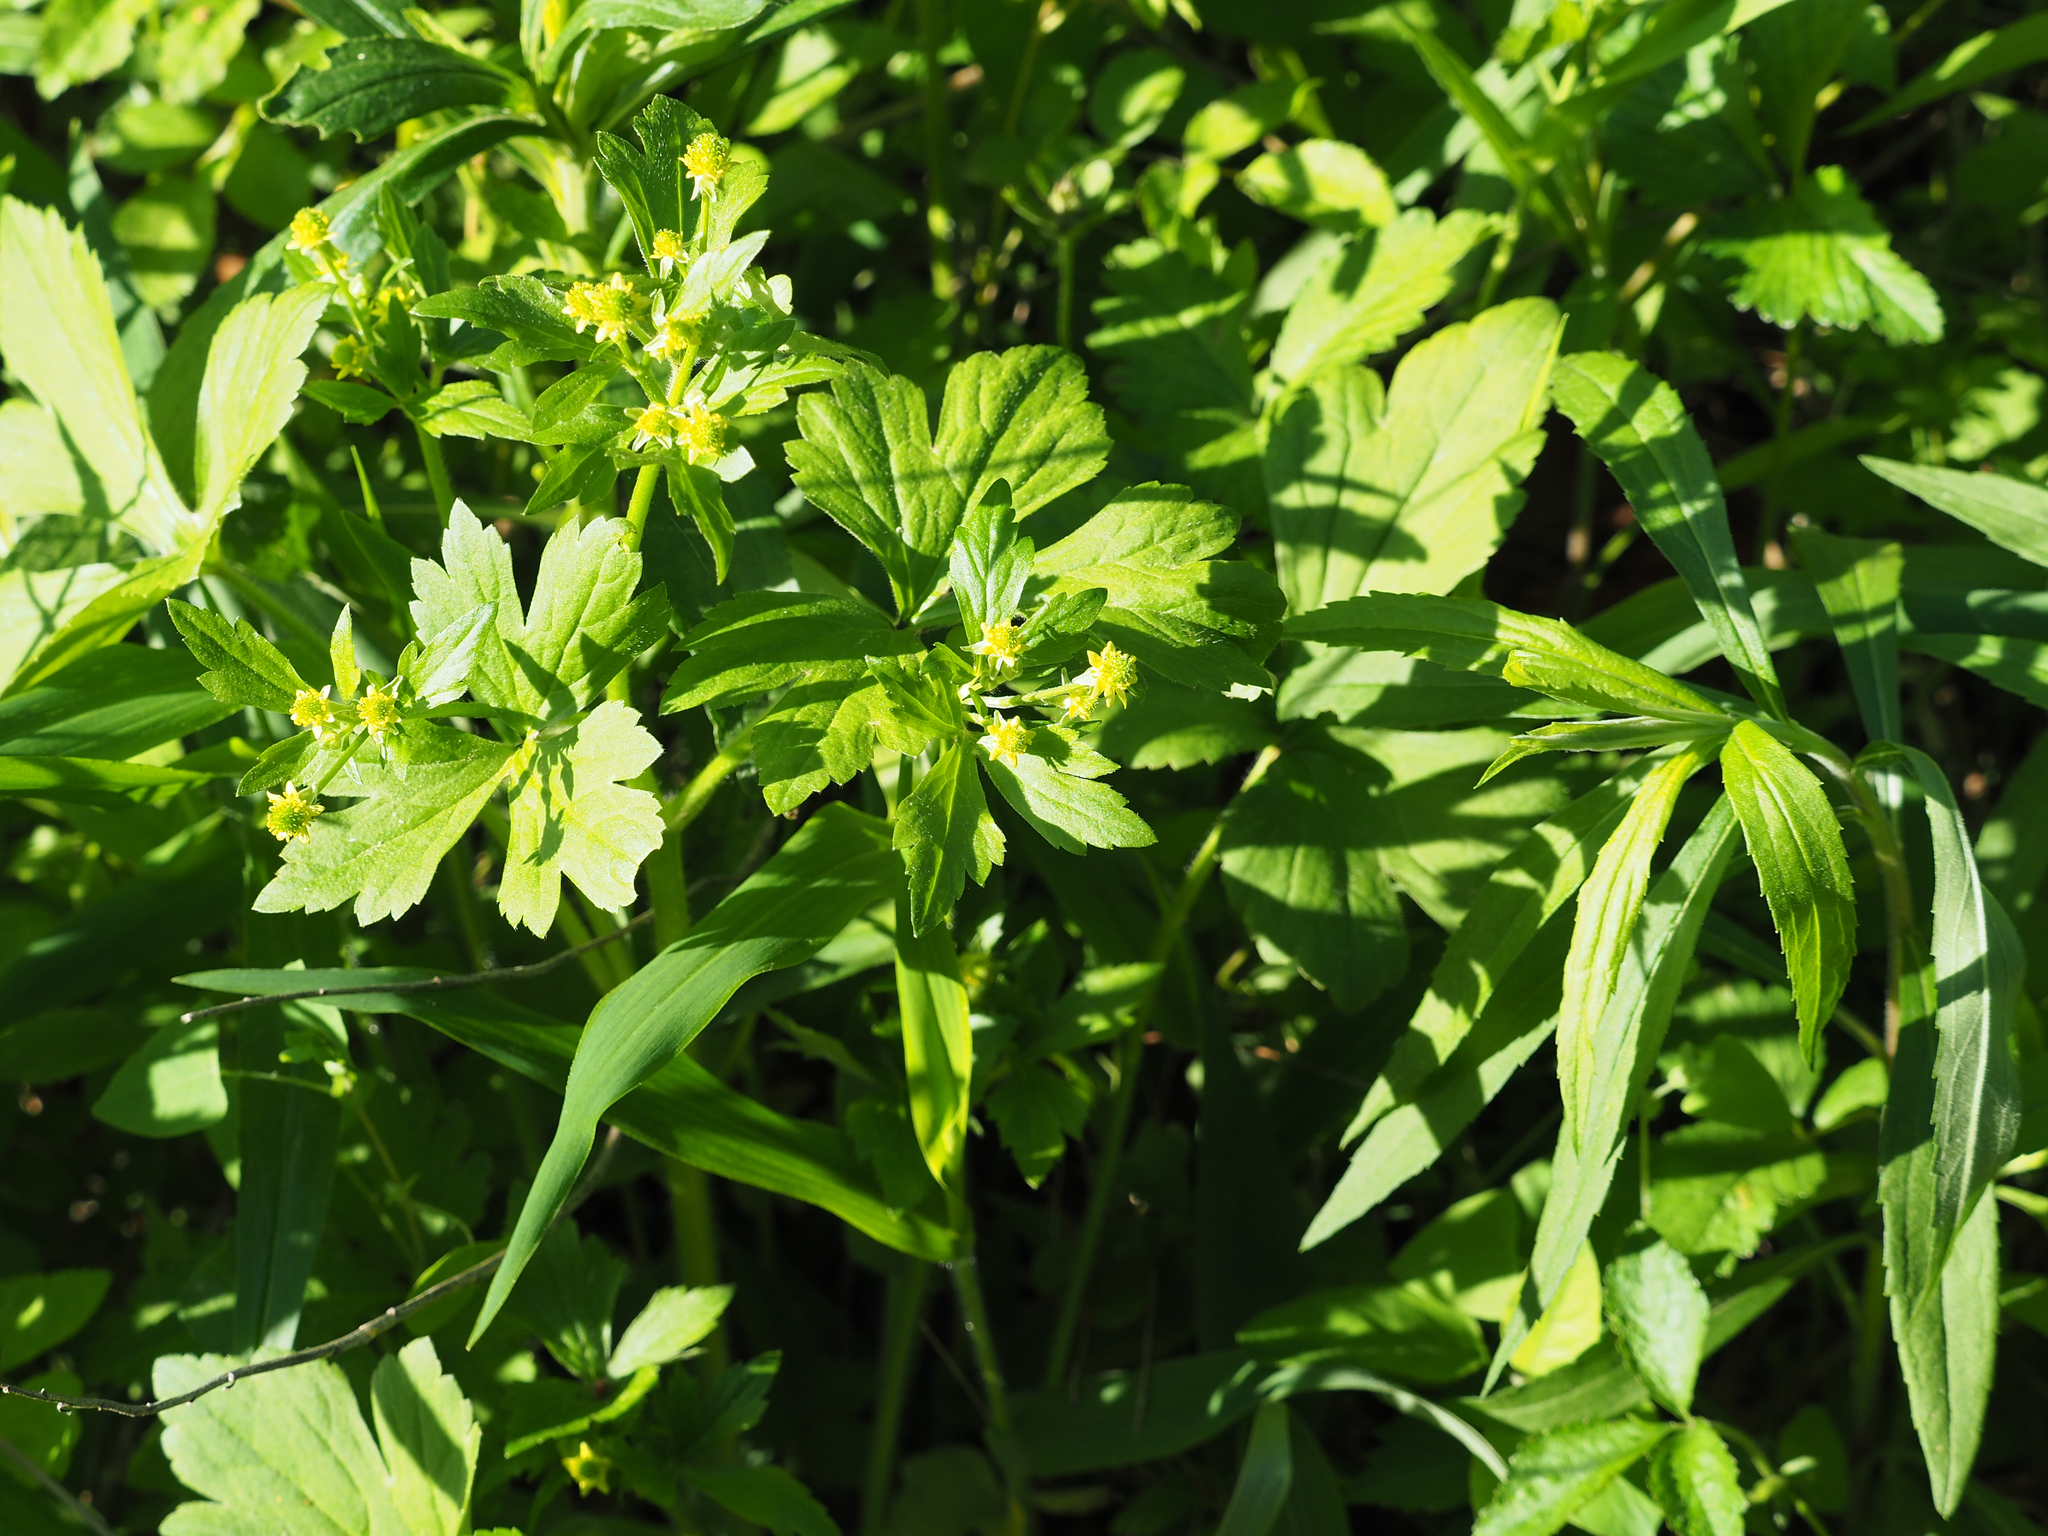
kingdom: Plantae
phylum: Tracheophyta
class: Magnoliopsida
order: Ranunculales
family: Ranunculaceae
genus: Ranunculus
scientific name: Ranunculus recurvatus
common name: Blisterwort
